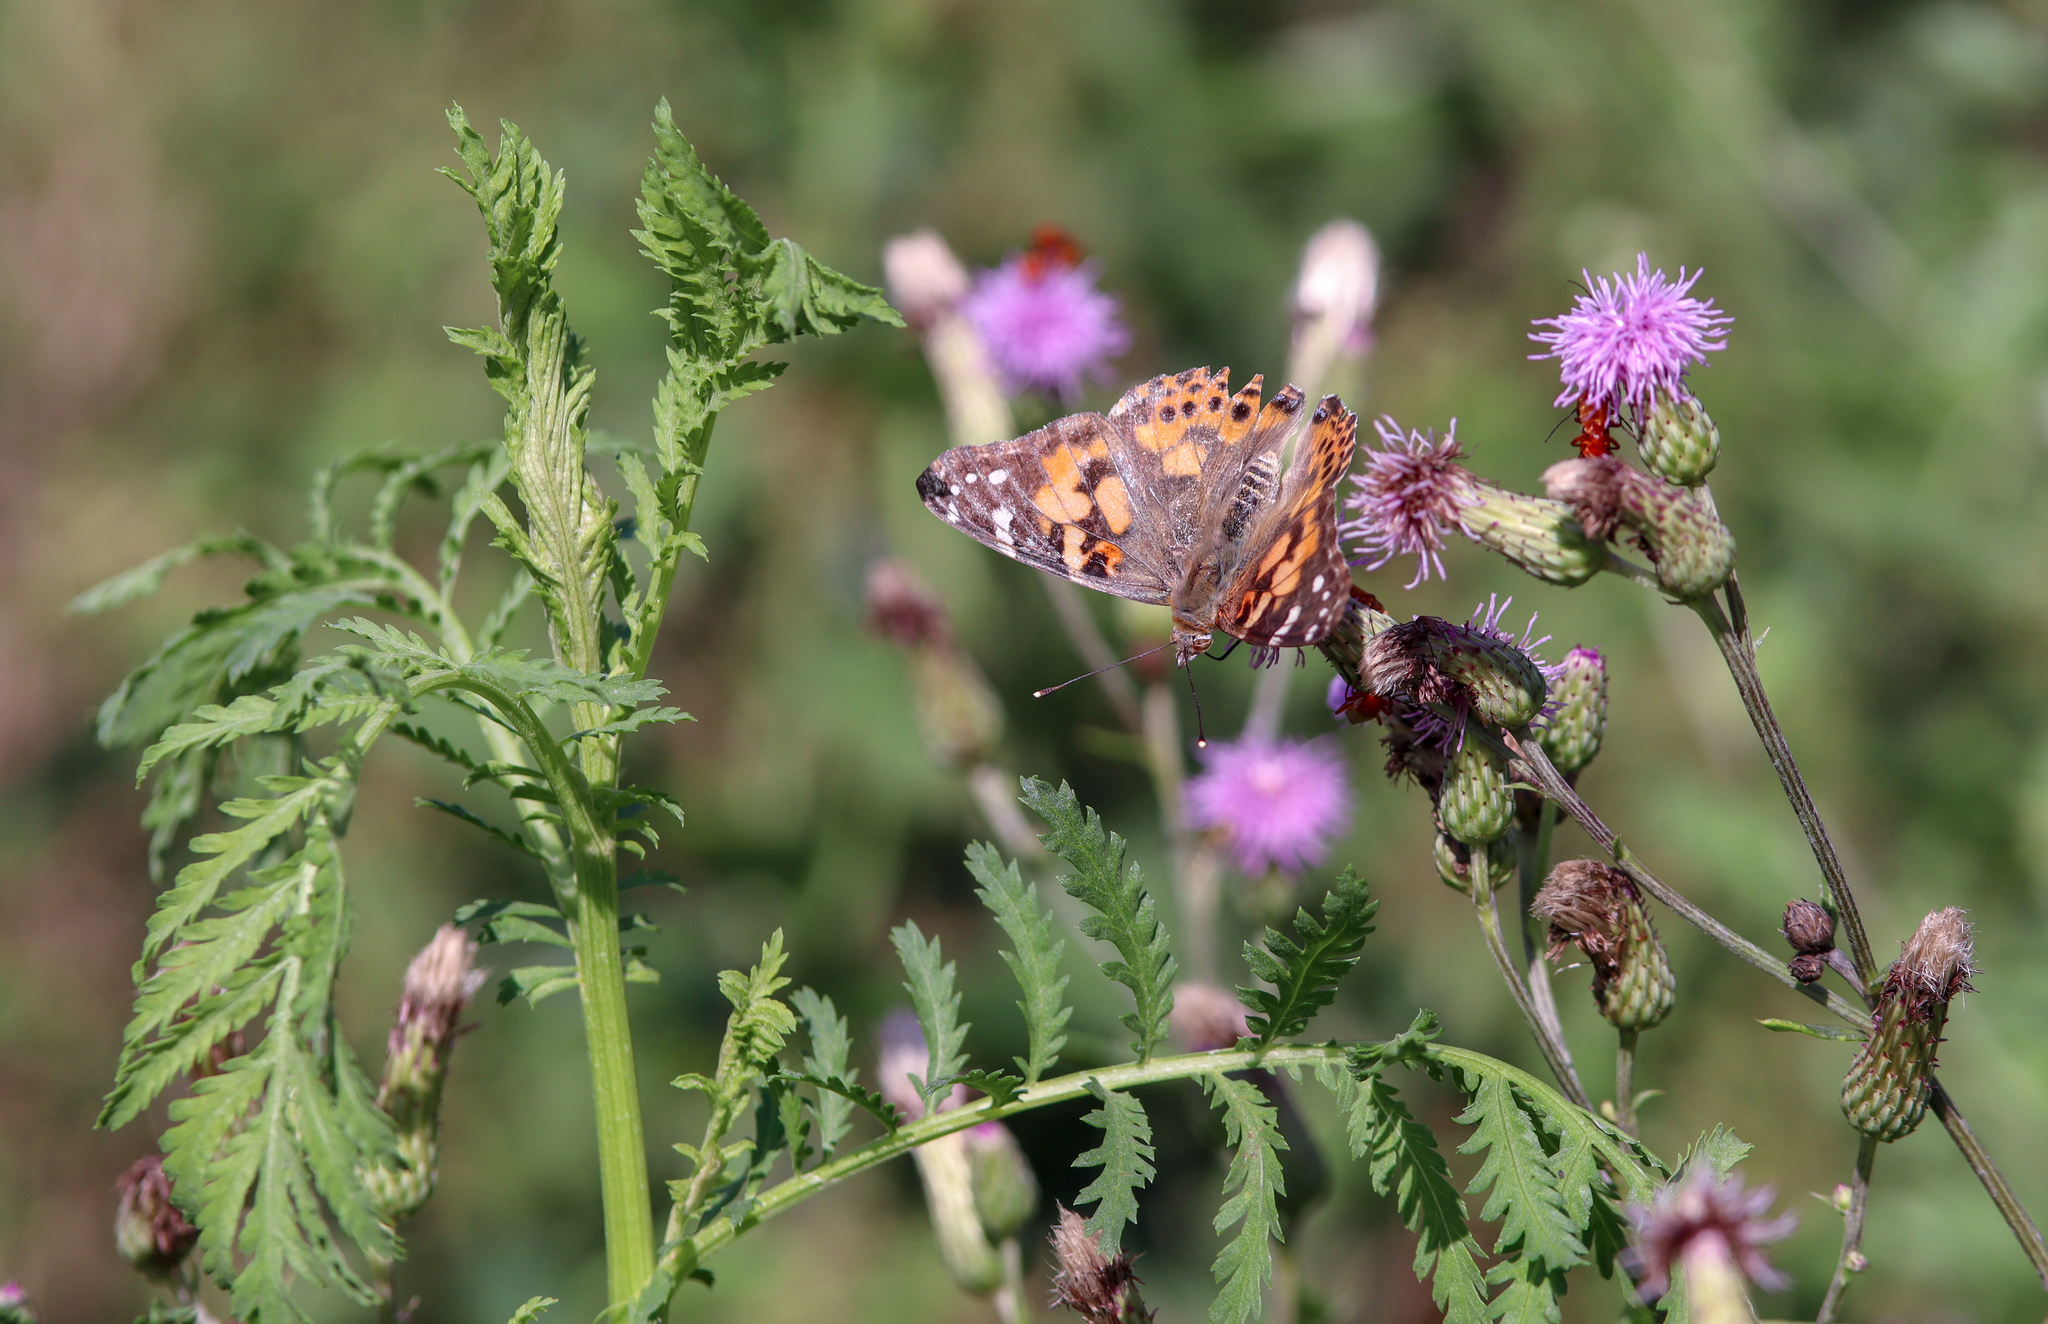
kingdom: Animalia
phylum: Arthropoda
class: Insecta
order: Lepidoptera
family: Nymphalidae
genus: Vanessa
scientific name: Vanessa cardui
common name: Painted lady
